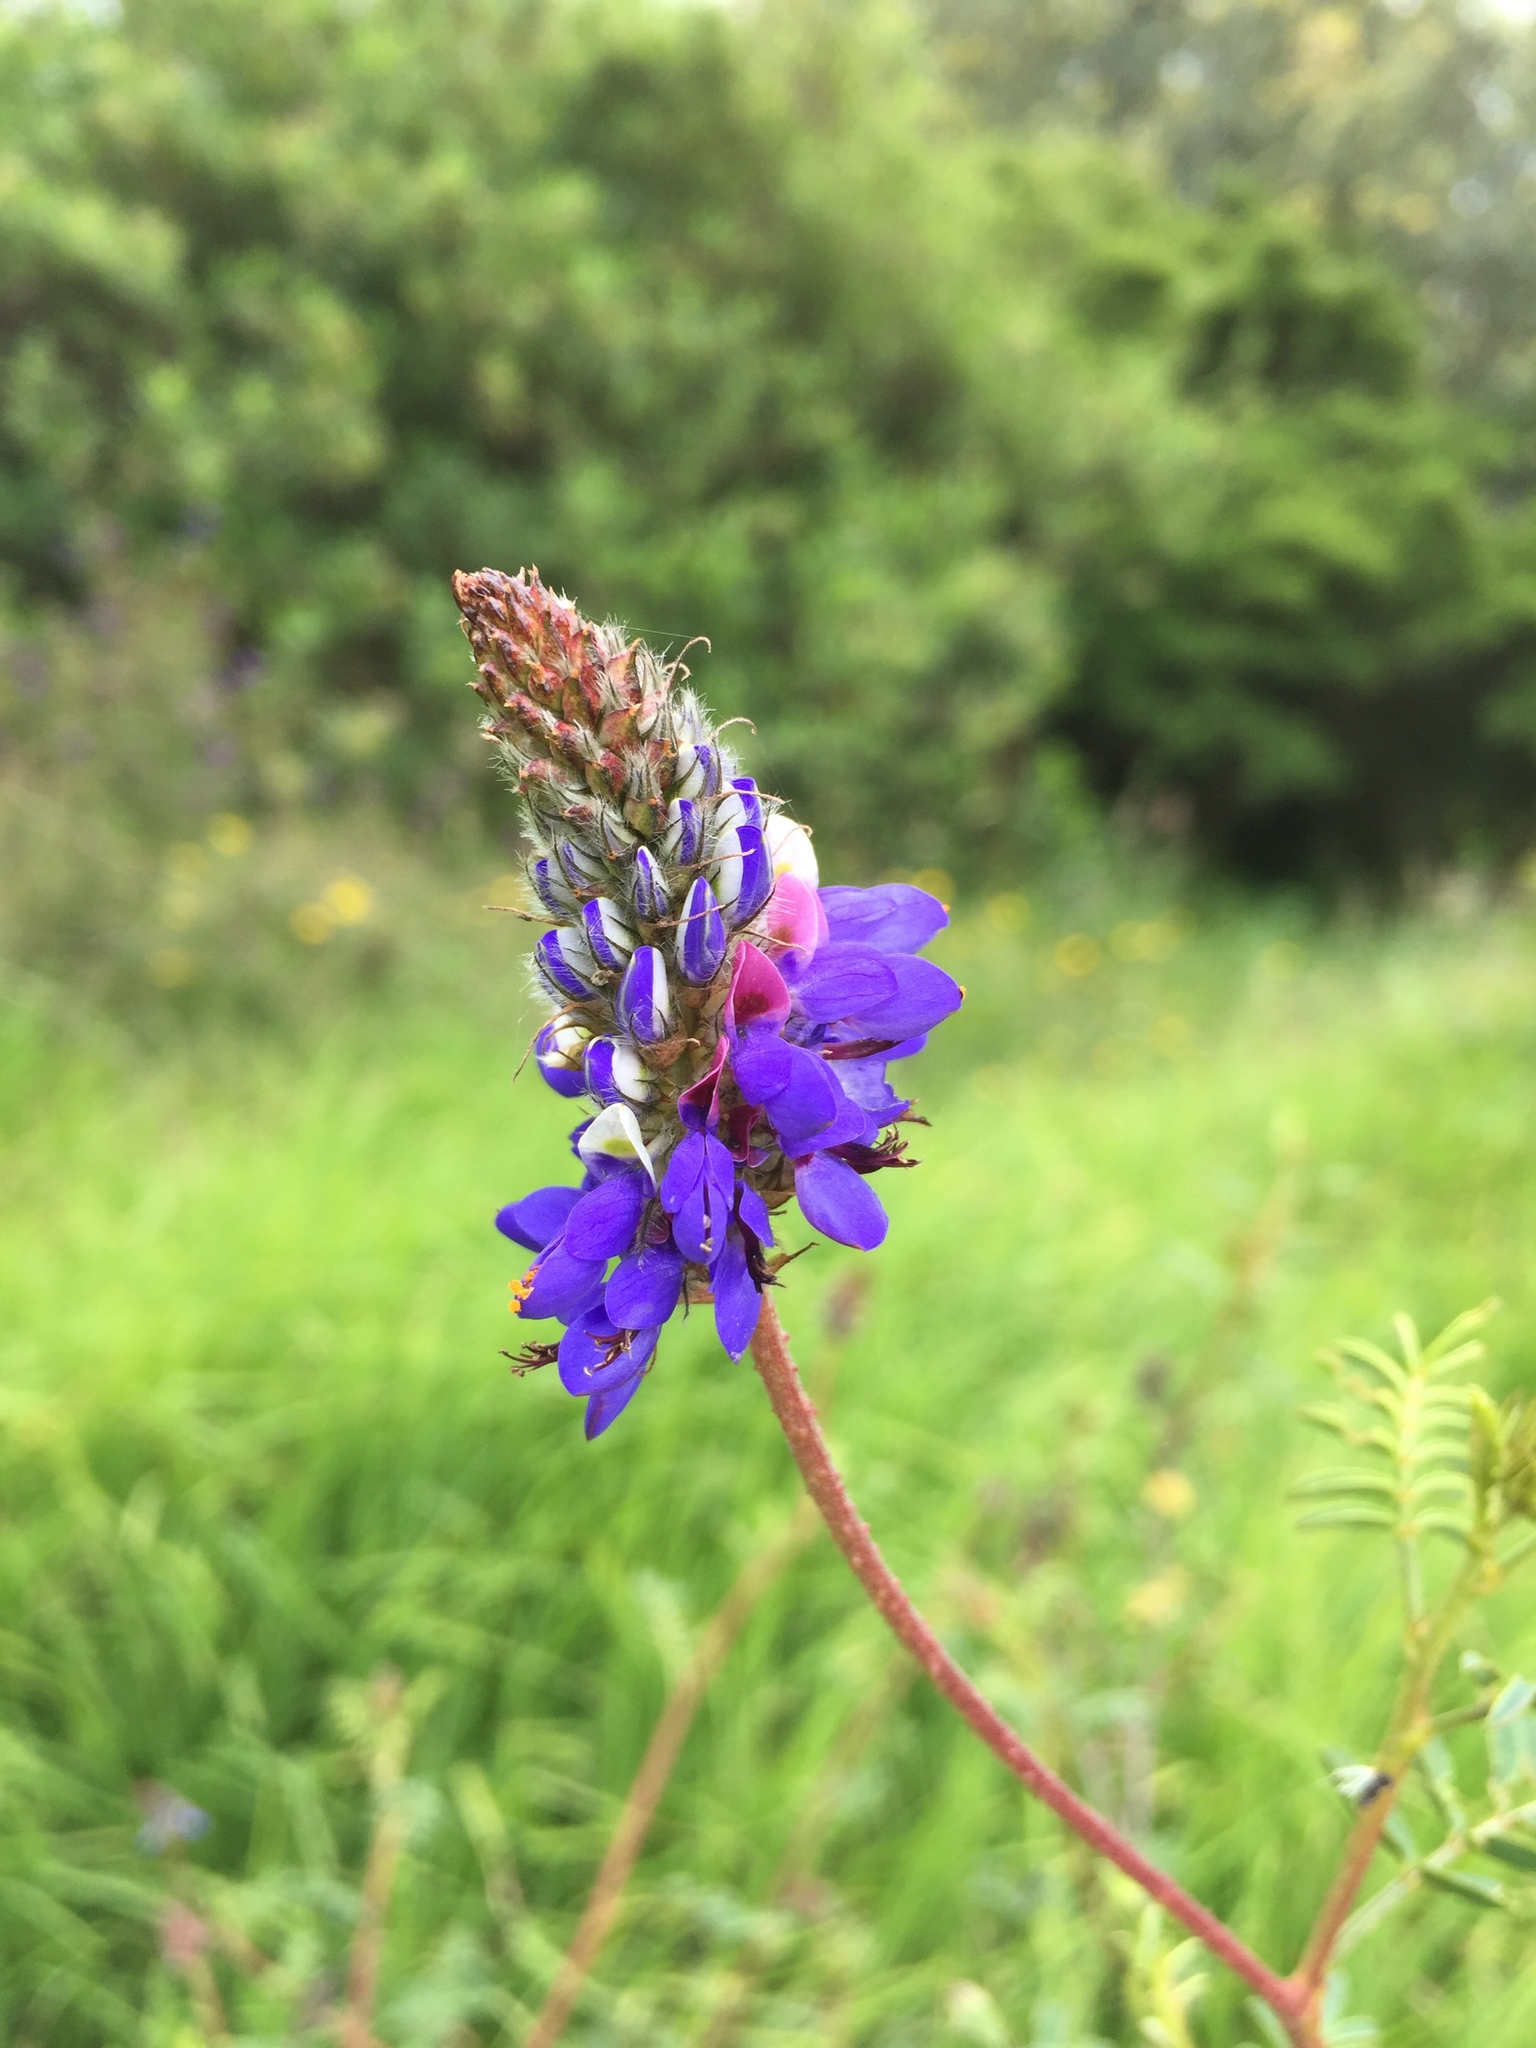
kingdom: Plantae
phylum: Tracheophyta
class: Magnoliopsida
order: Fabales
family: Fabaceae
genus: Dalea
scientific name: Dalea coerulea
